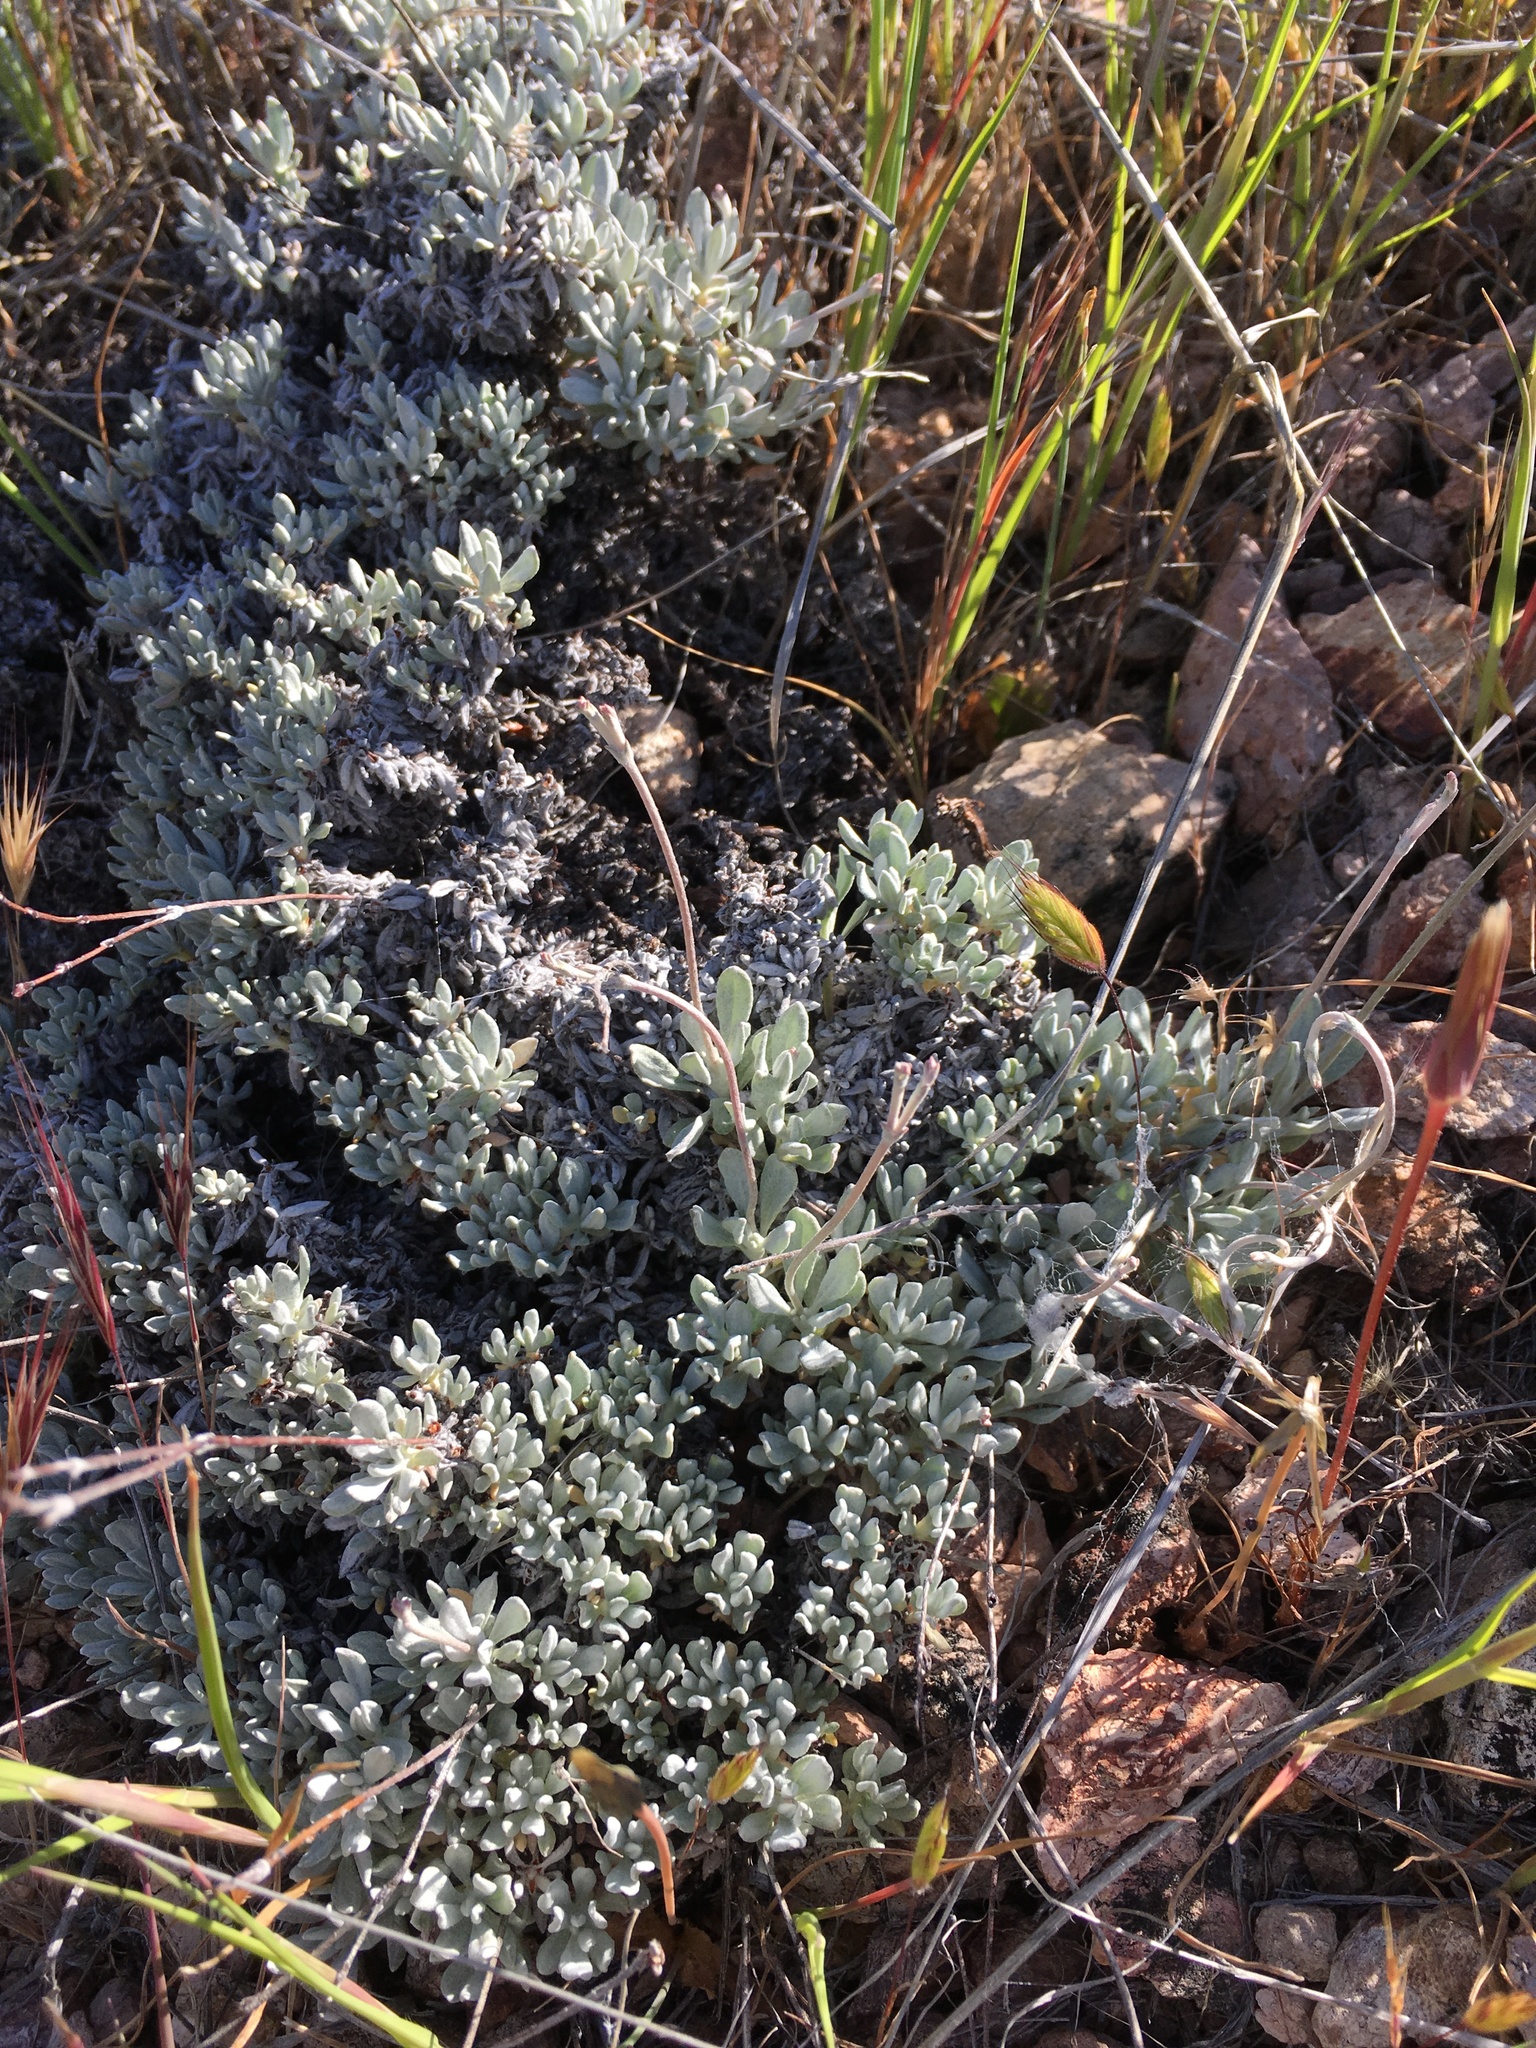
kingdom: Plantae
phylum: Tracheophyta
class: Magnoliopsida
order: Caryophyllales
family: Polygonaceae
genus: Eriogonum
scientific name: Eriogonum wrightii
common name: Bastard-sage
